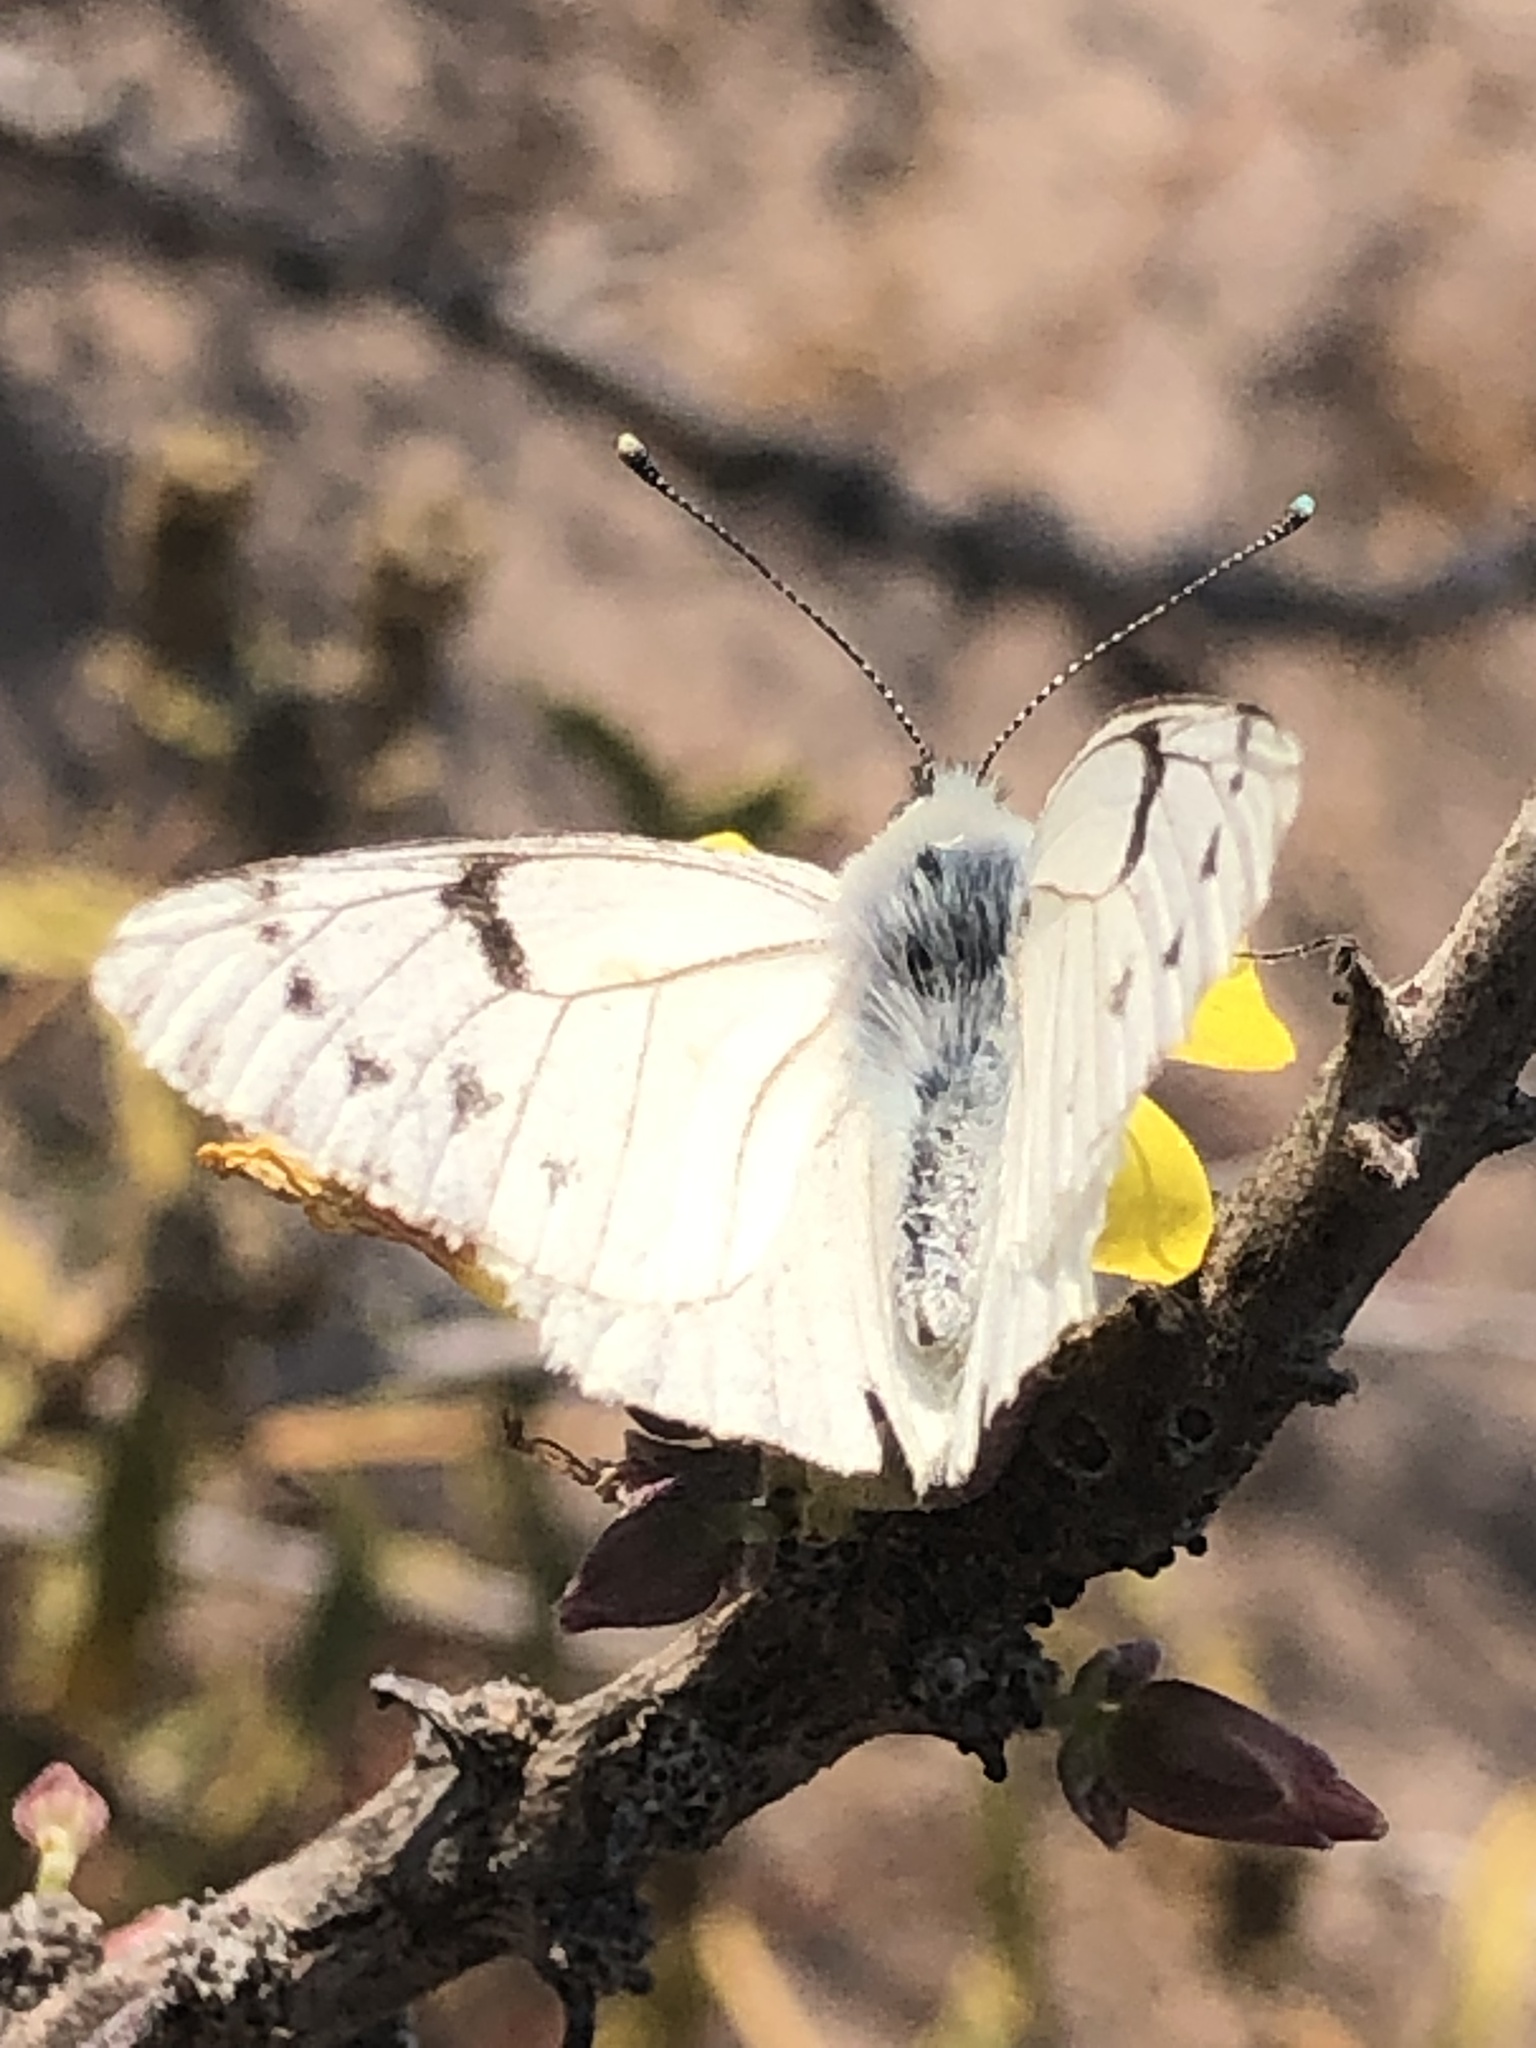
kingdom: Animalia
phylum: Arthropoda
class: Insecta
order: Lepidoptera
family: Pieridae
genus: Tatochila
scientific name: Tatochila mercedis
